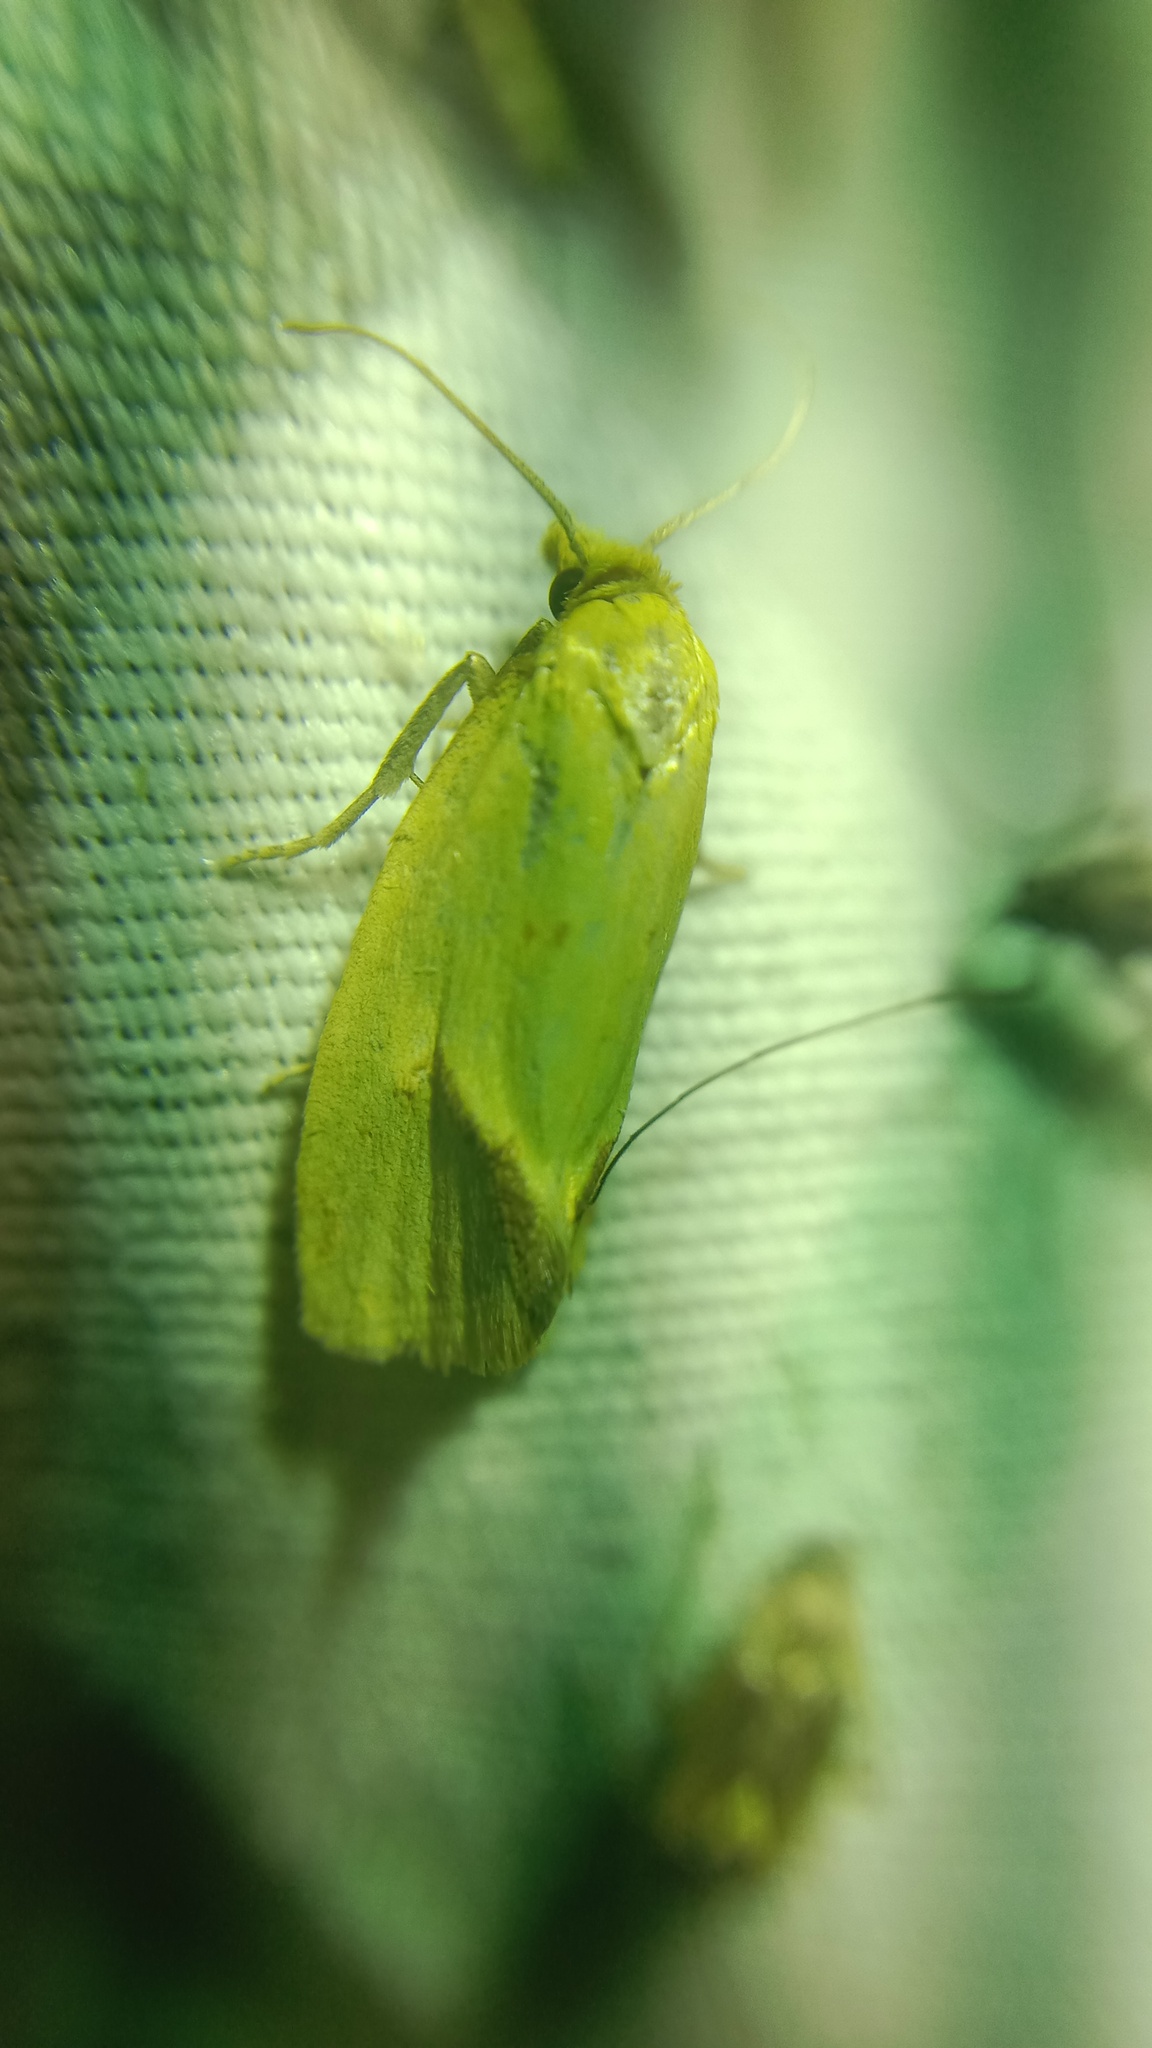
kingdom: Animalia
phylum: Arthropoda
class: Insecta
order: Lepidoptera
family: Tortricidae
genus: Agapeta
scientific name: Agapeta hamana
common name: Common yellow conch
